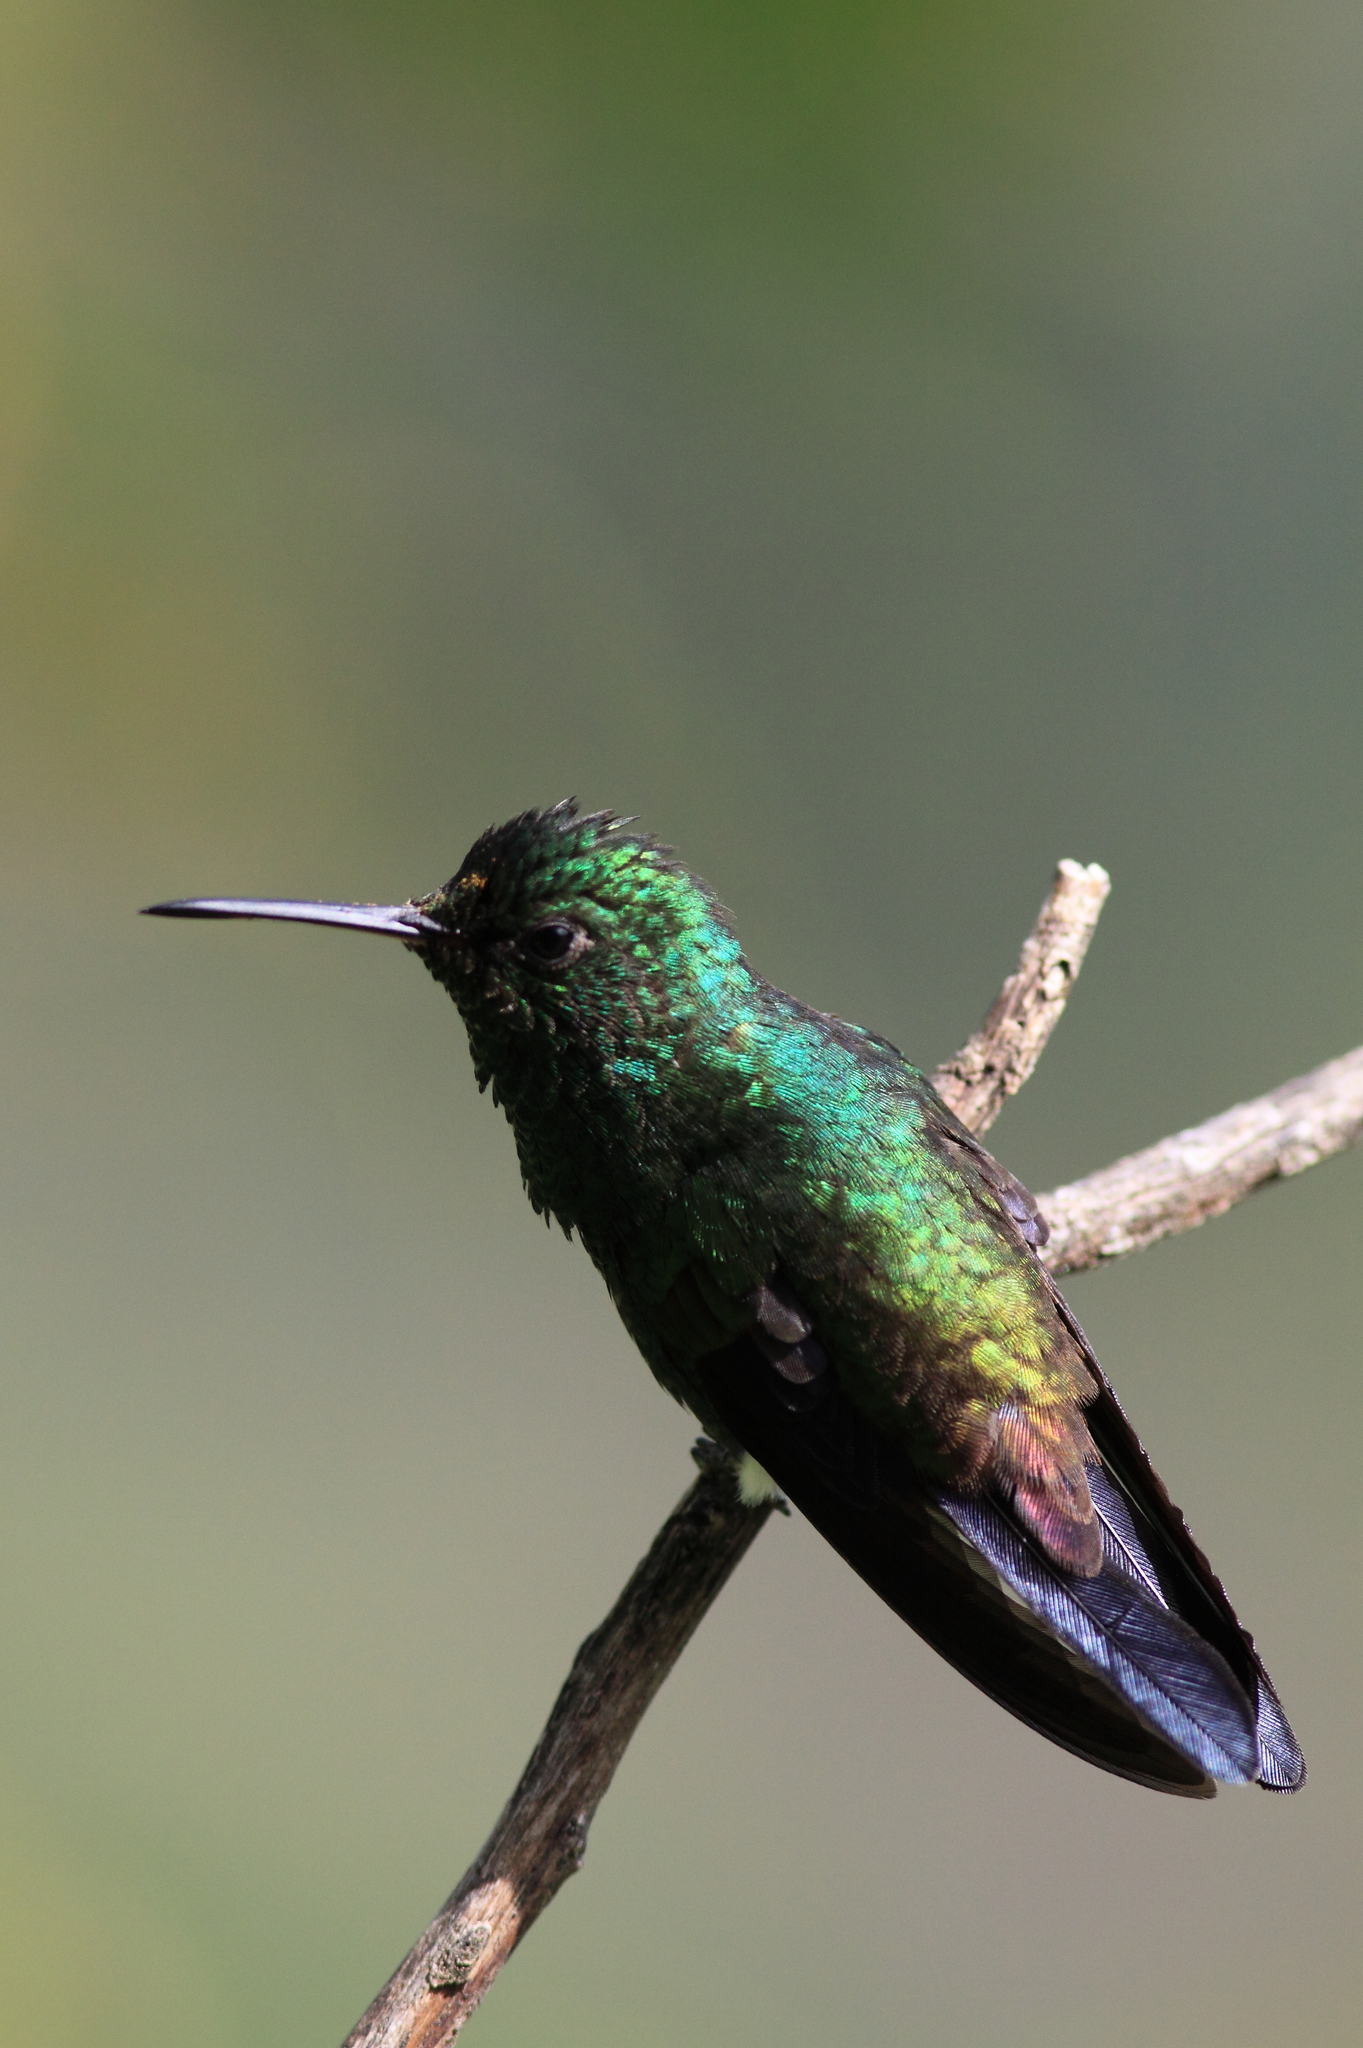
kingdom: Animalia
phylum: Chordata
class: Aves
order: Apodiformes
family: Trochilidae
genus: Saucerottia
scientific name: Saucerottia tobaci
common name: Copper-rumped hummingbird
